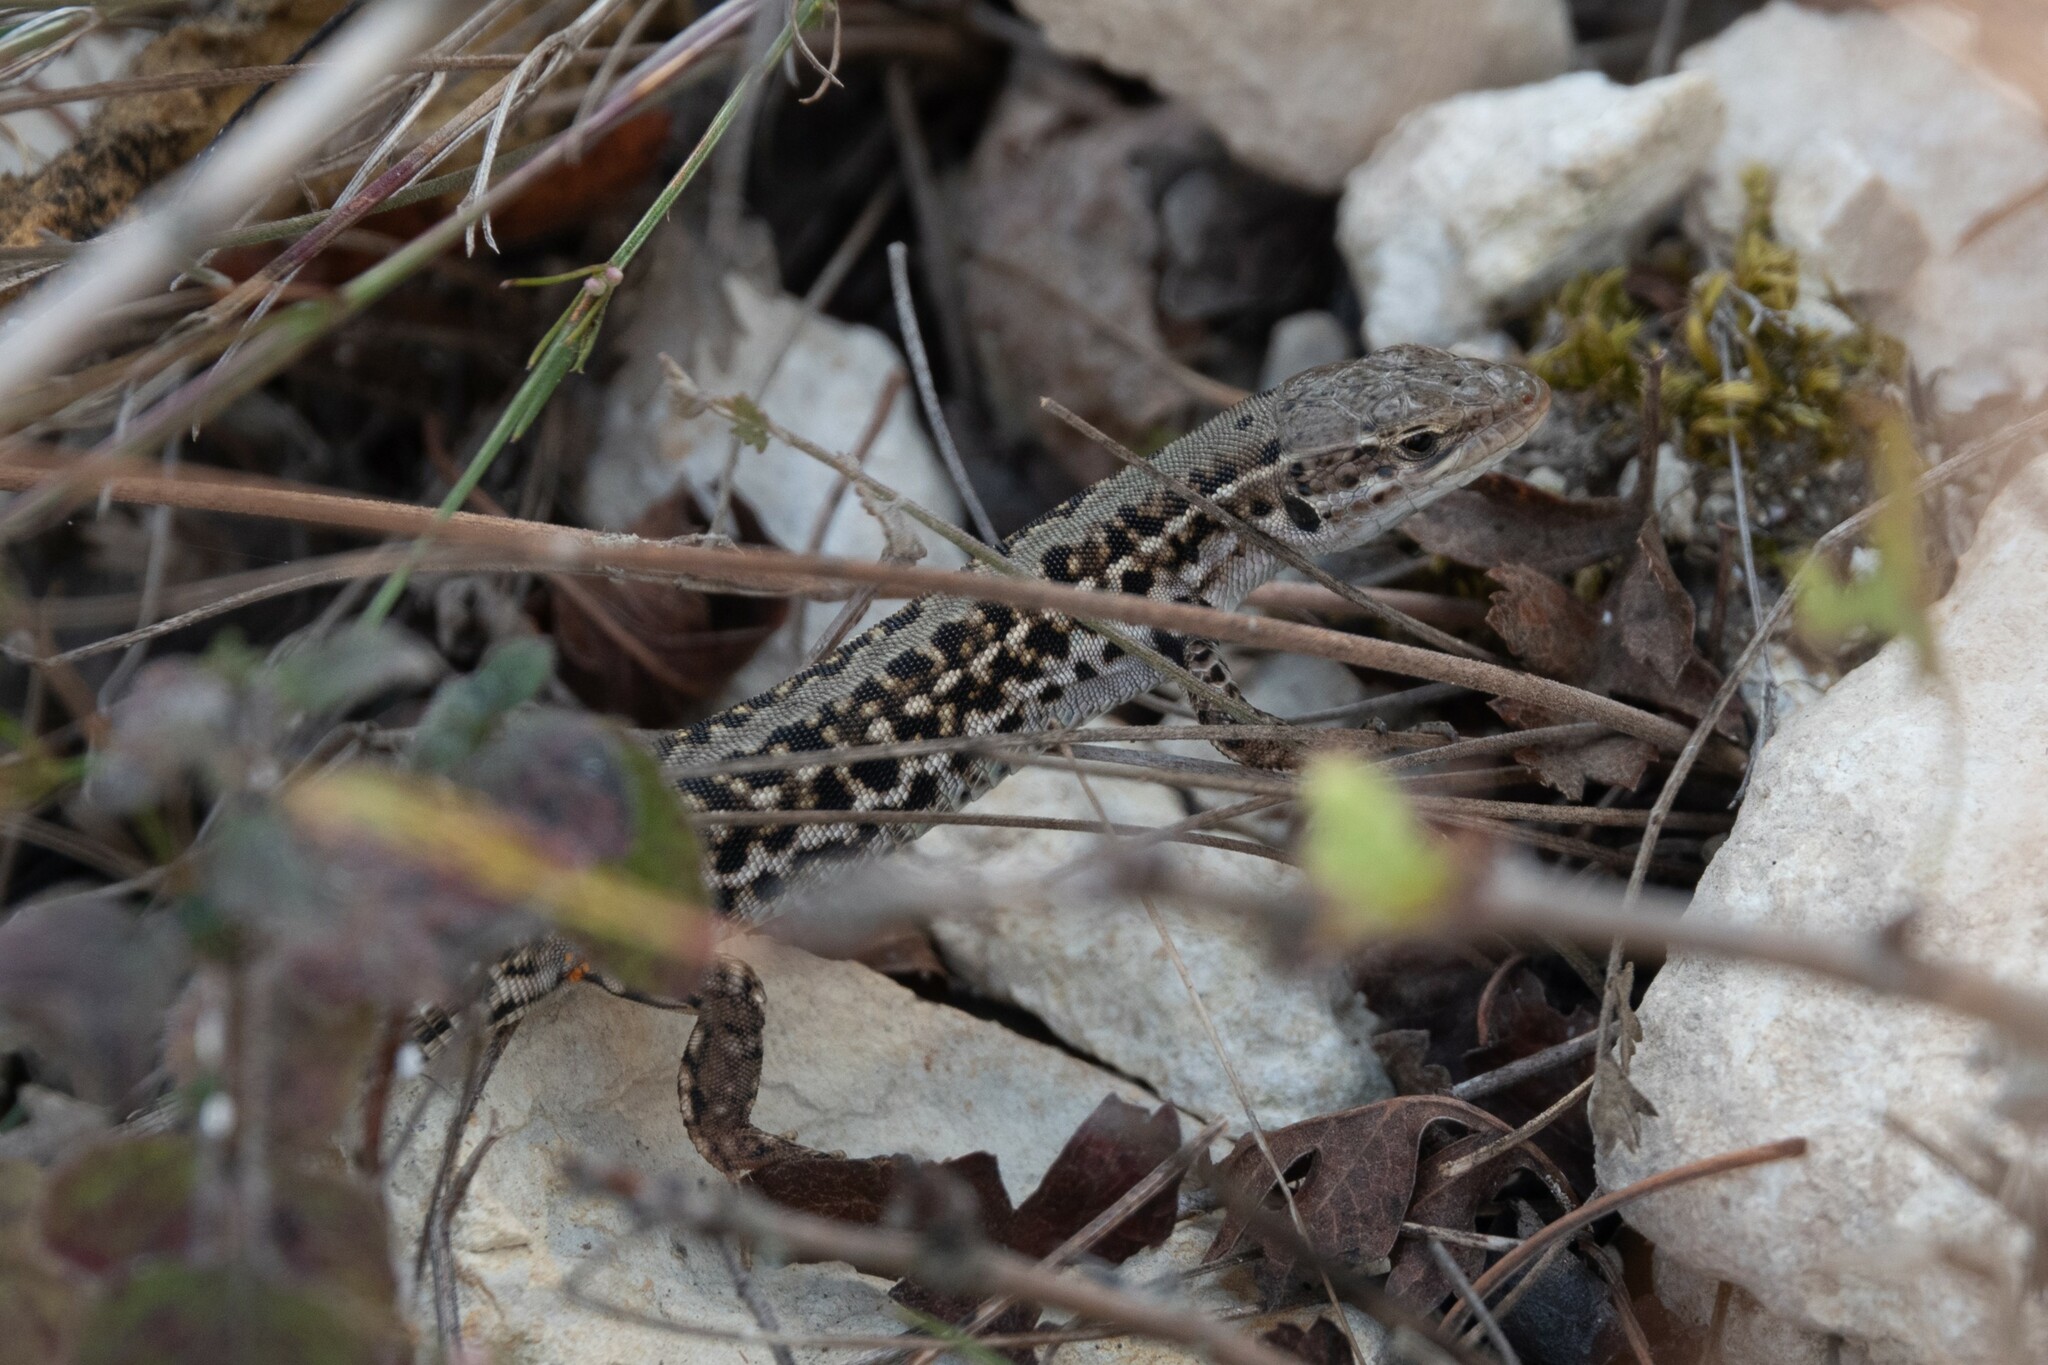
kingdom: Animalia
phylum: Chordata
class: Squamata
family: Lacertidae
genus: Podarcis
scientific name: Podarcis tauricus
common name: Balkan wall lizard
